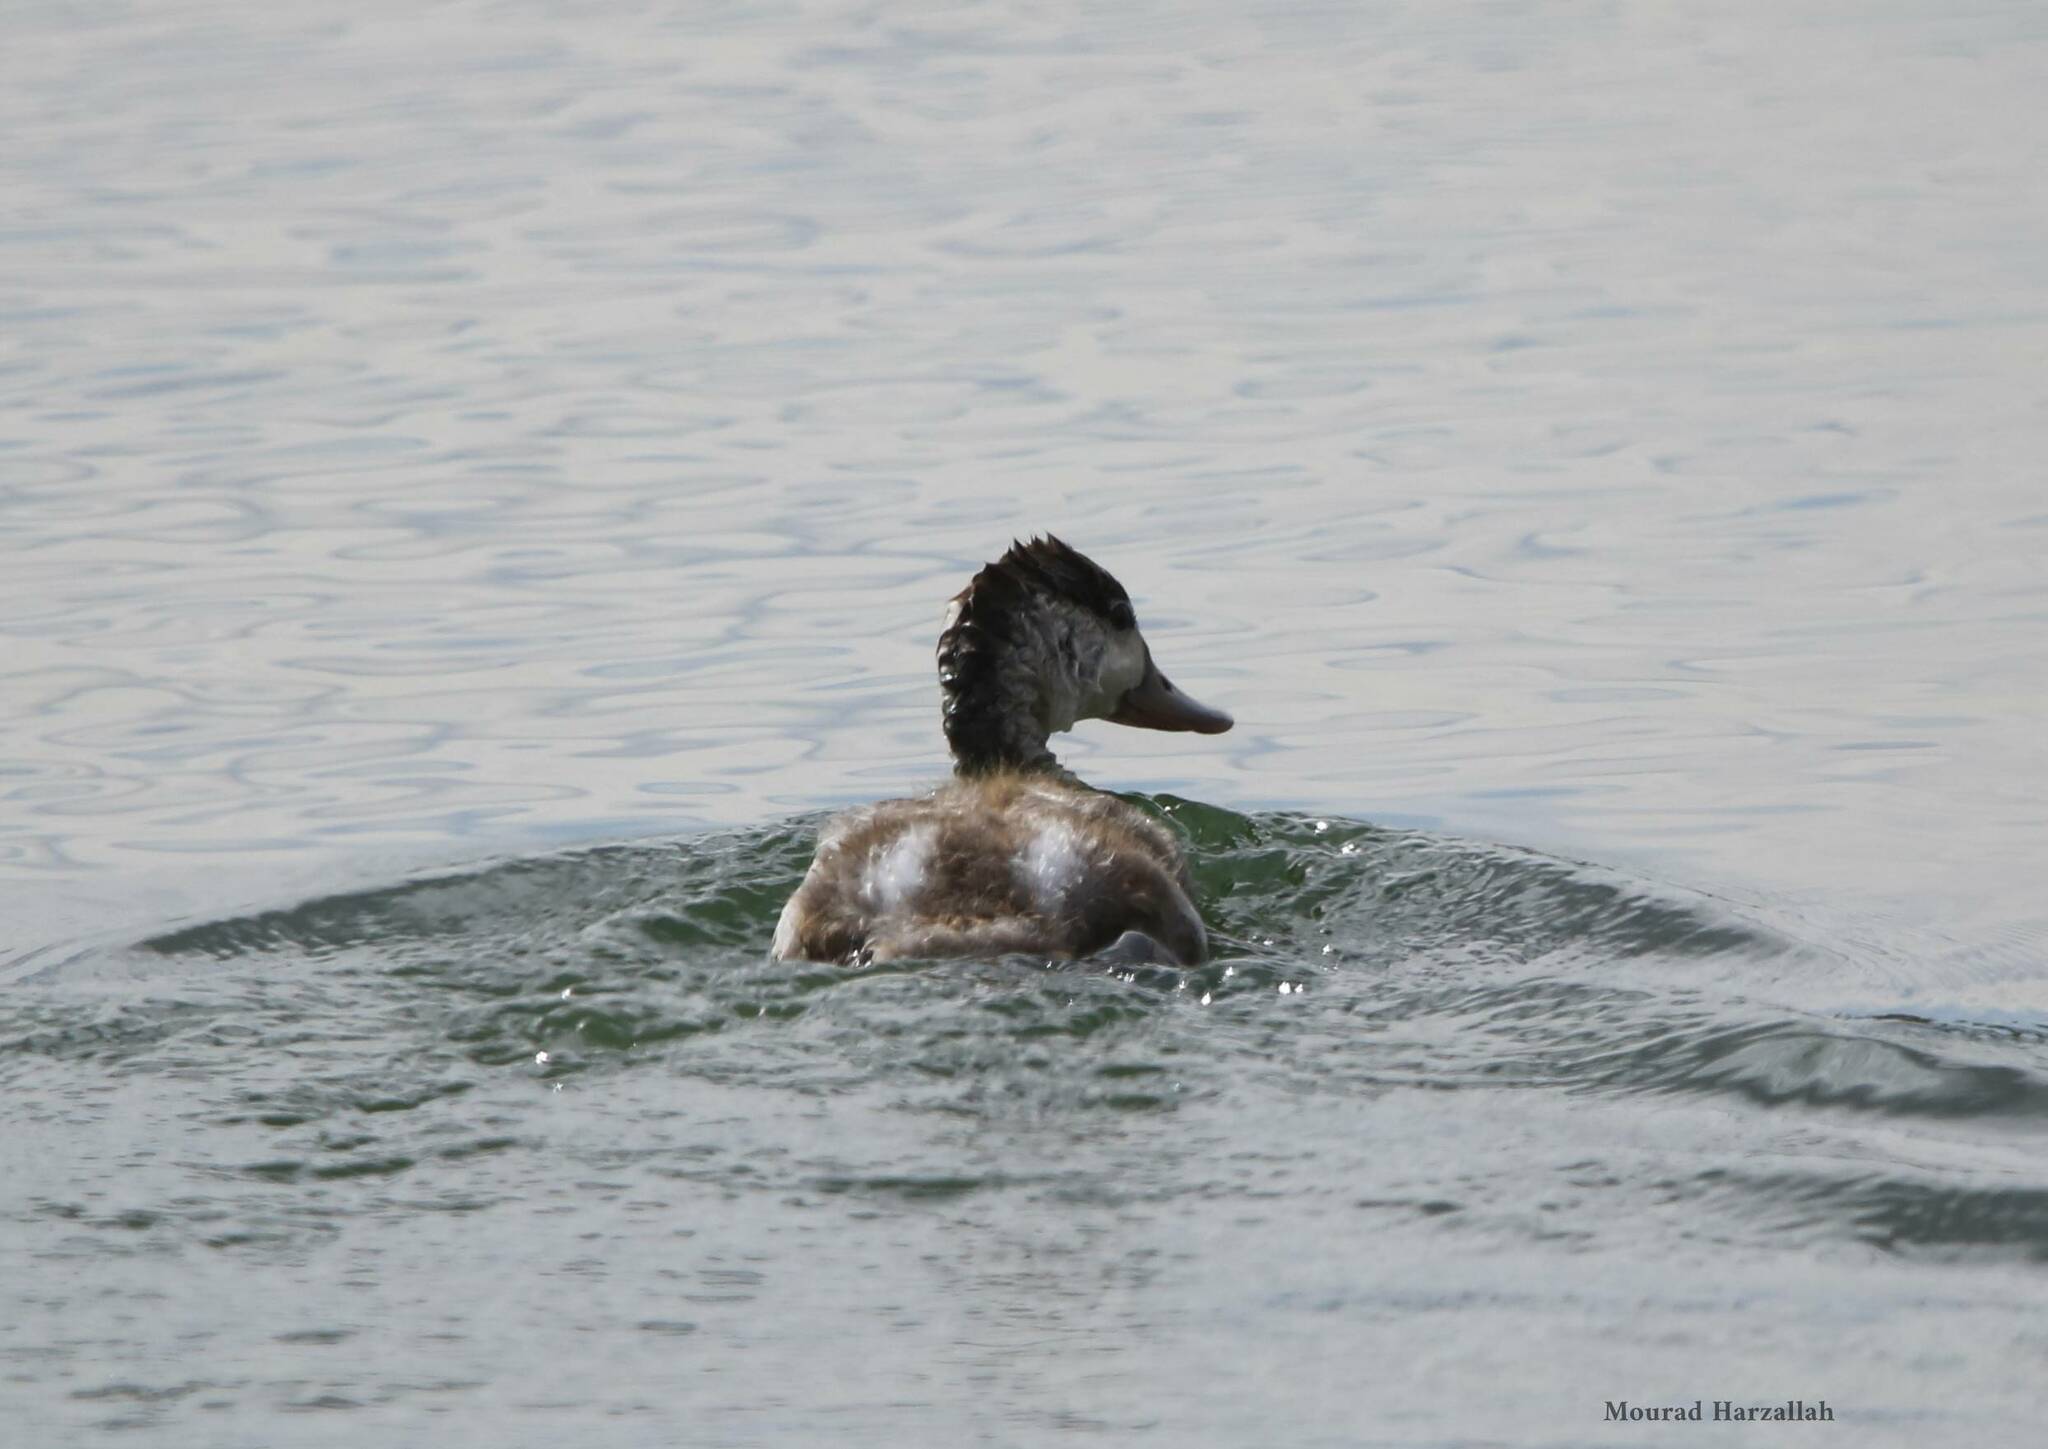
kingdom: Animalia
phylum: Chordata
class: Aves
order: Anseriformes
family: Anatidae
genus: Tadorna
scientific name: Tadorna tadorna
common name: Common shelduck
